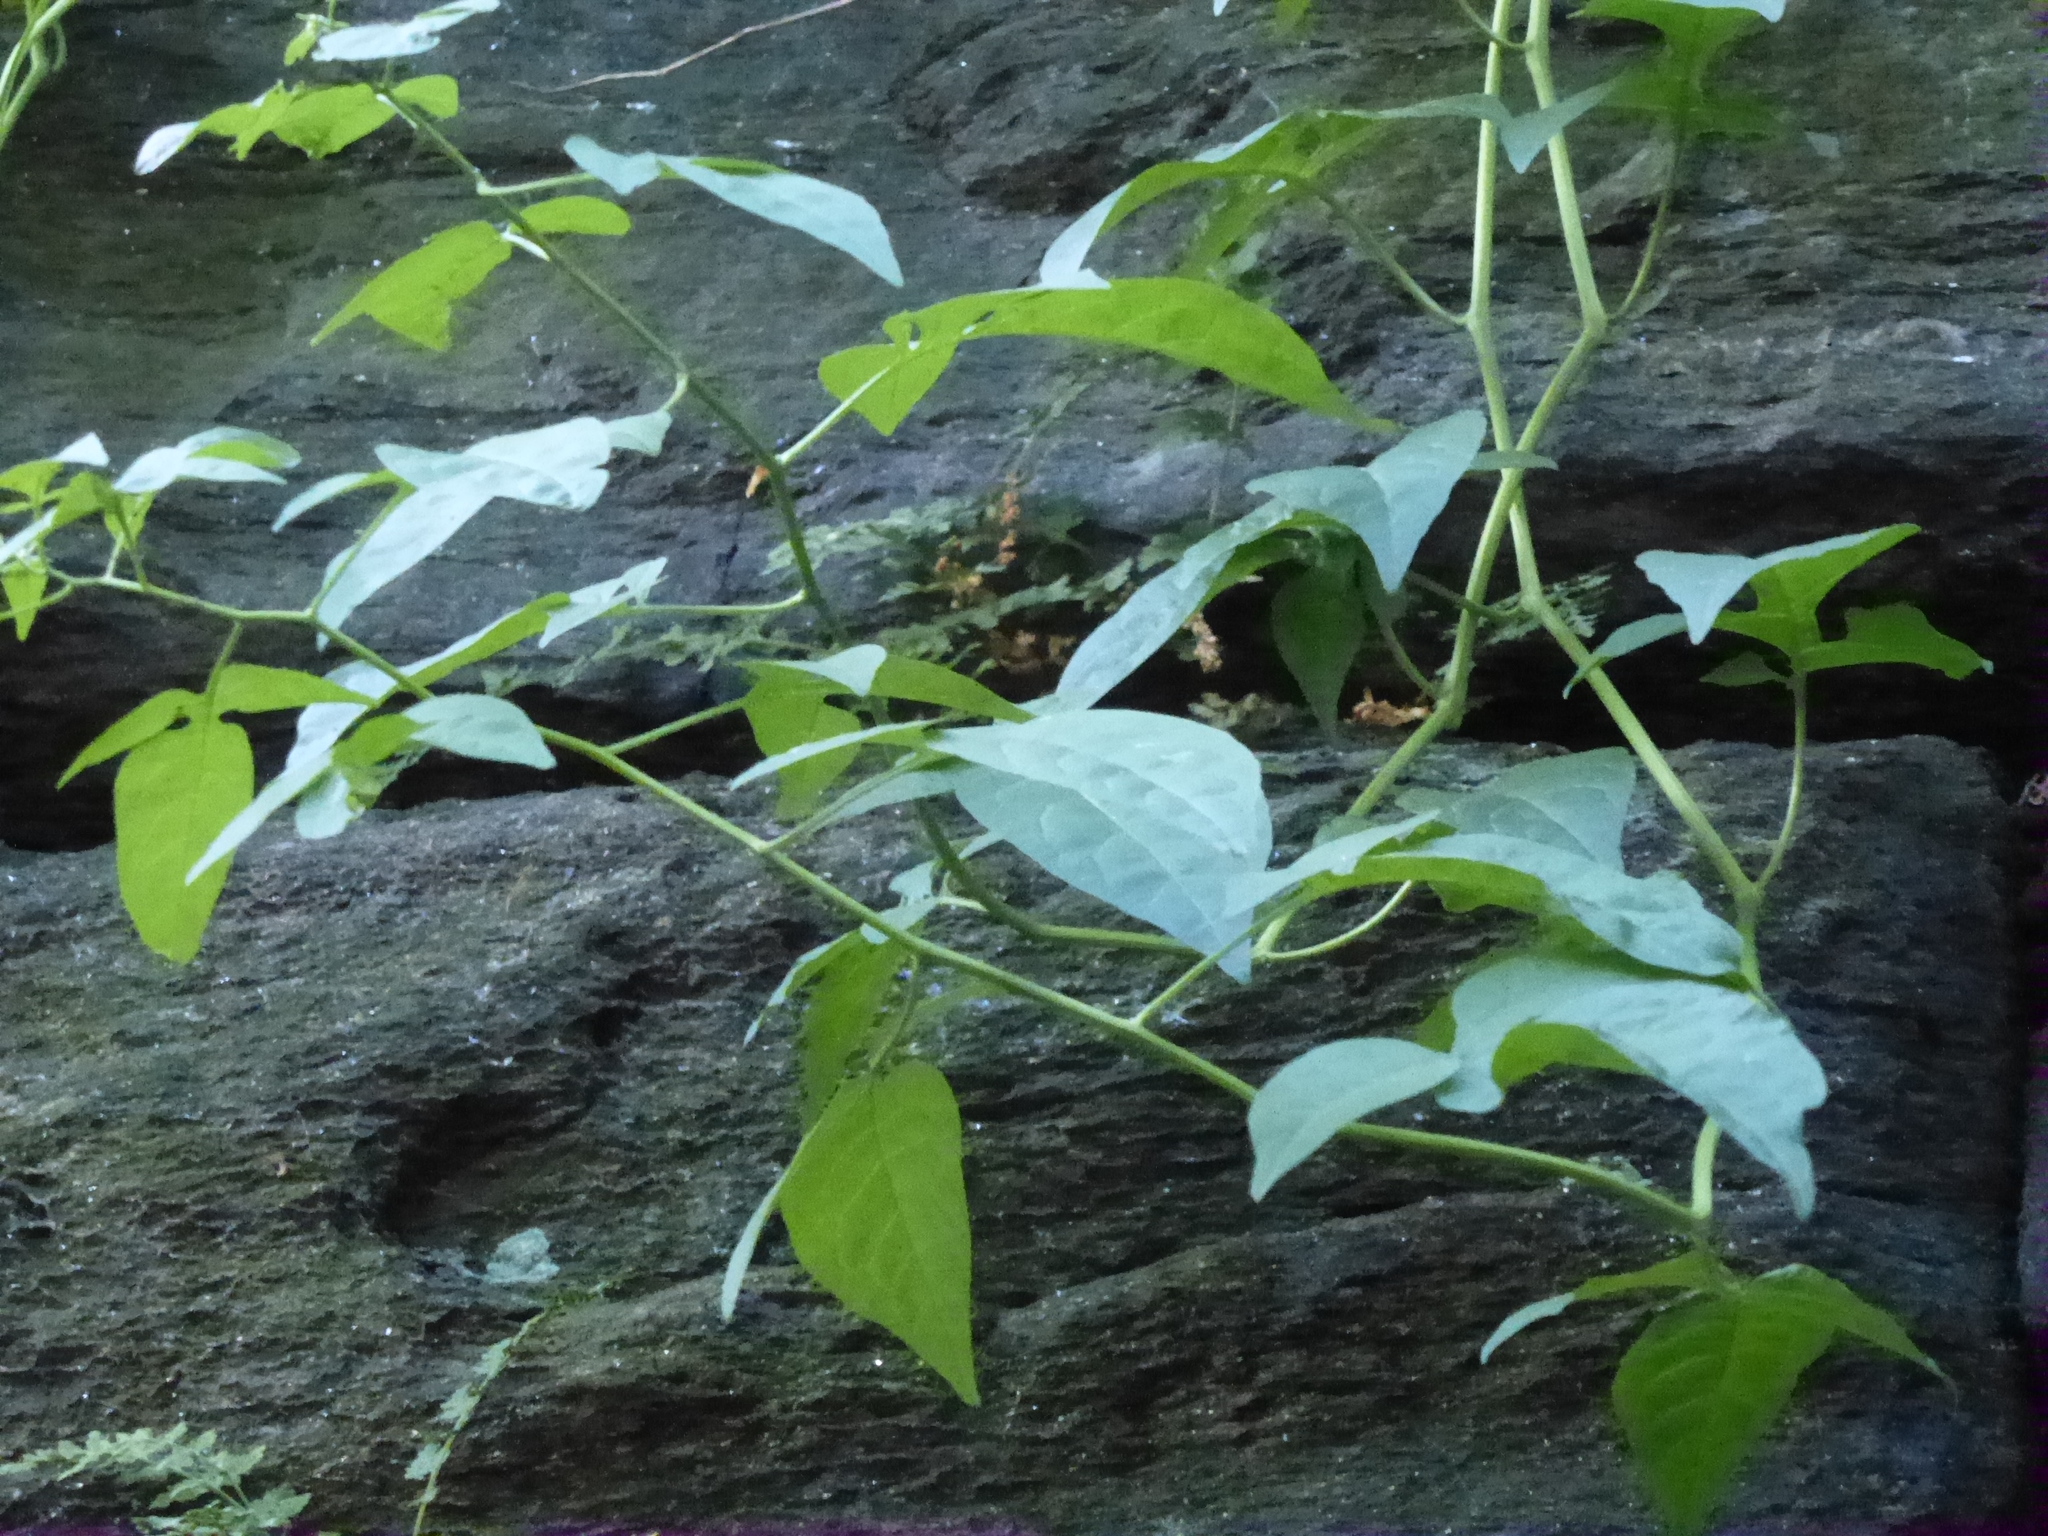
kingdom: Plantae
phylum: Tracheophyta
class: Magnoliopsida
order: Solanales
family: Solanaceae
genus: Solanum
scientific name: Solanum dulcamara
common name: Climbing nightshade
